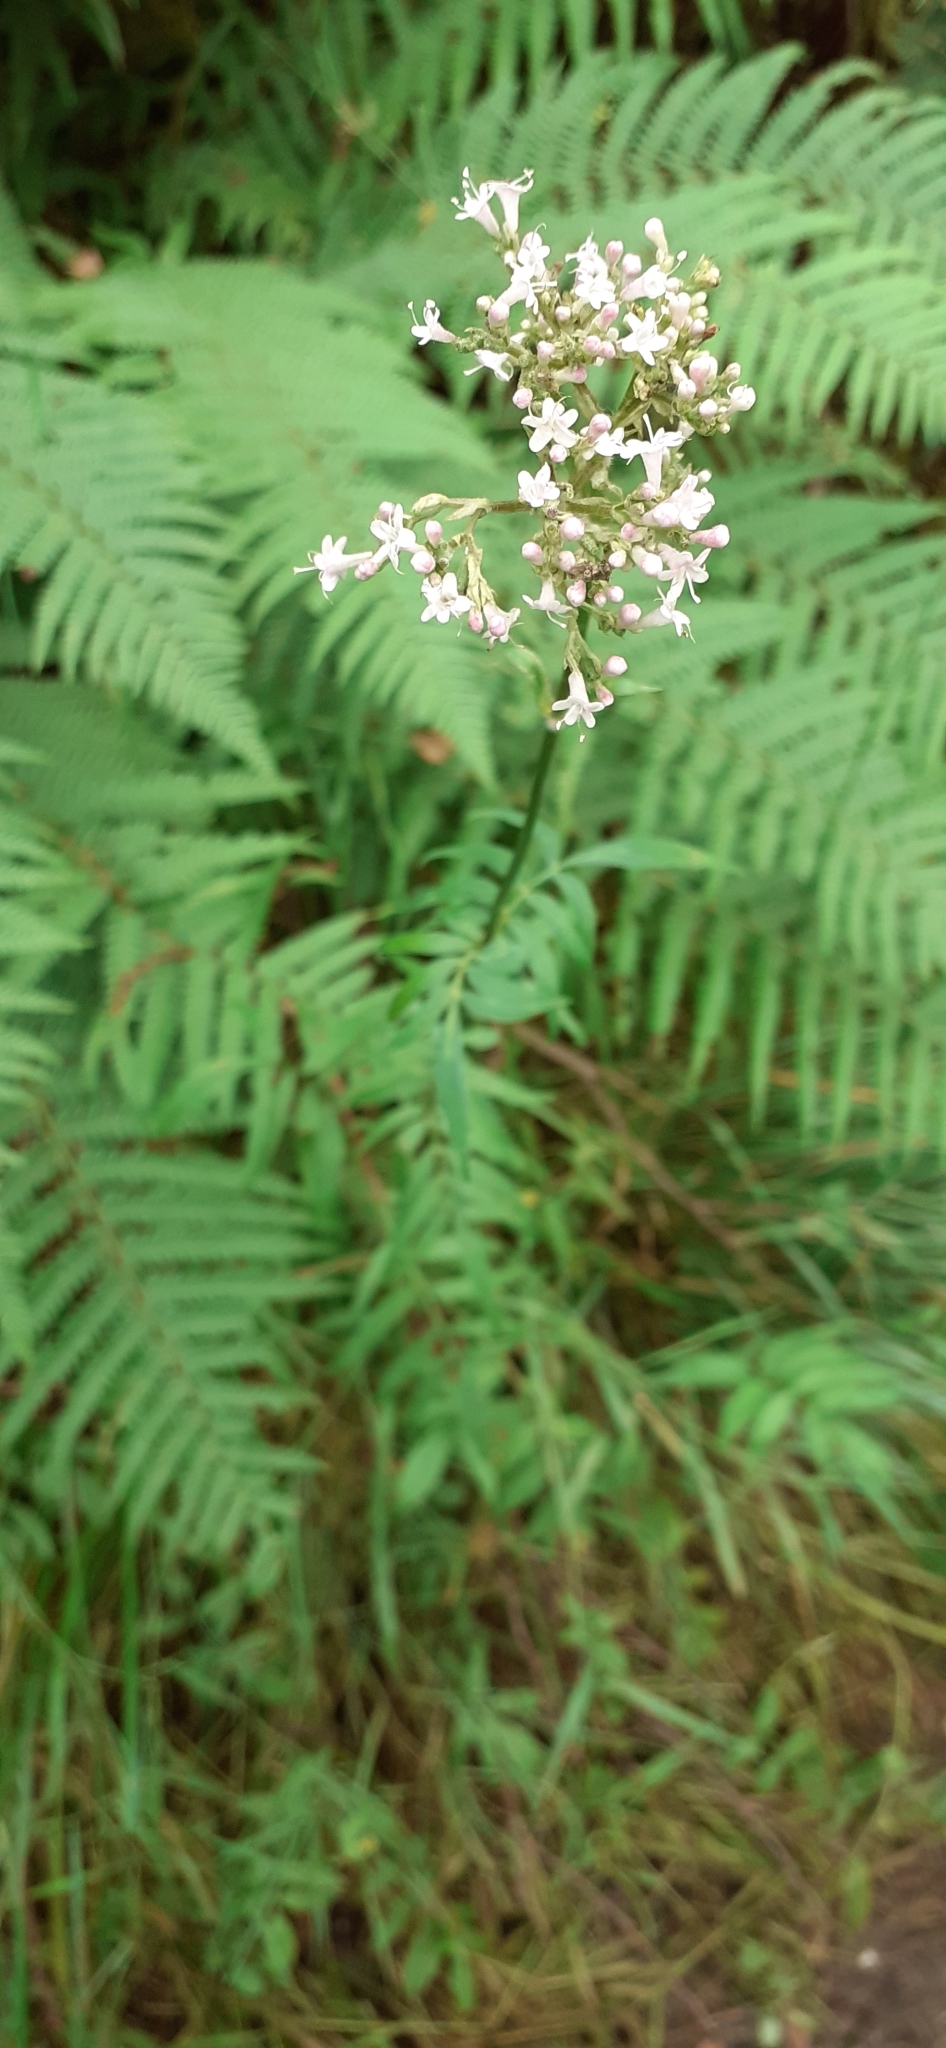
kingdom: Plantae
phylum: Tracheophyta
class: Magnoliopsida
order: Dipsacales
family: Caprifoliaceae
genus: Valeriana
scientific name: Valeriana officinalis
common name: Common valerian
